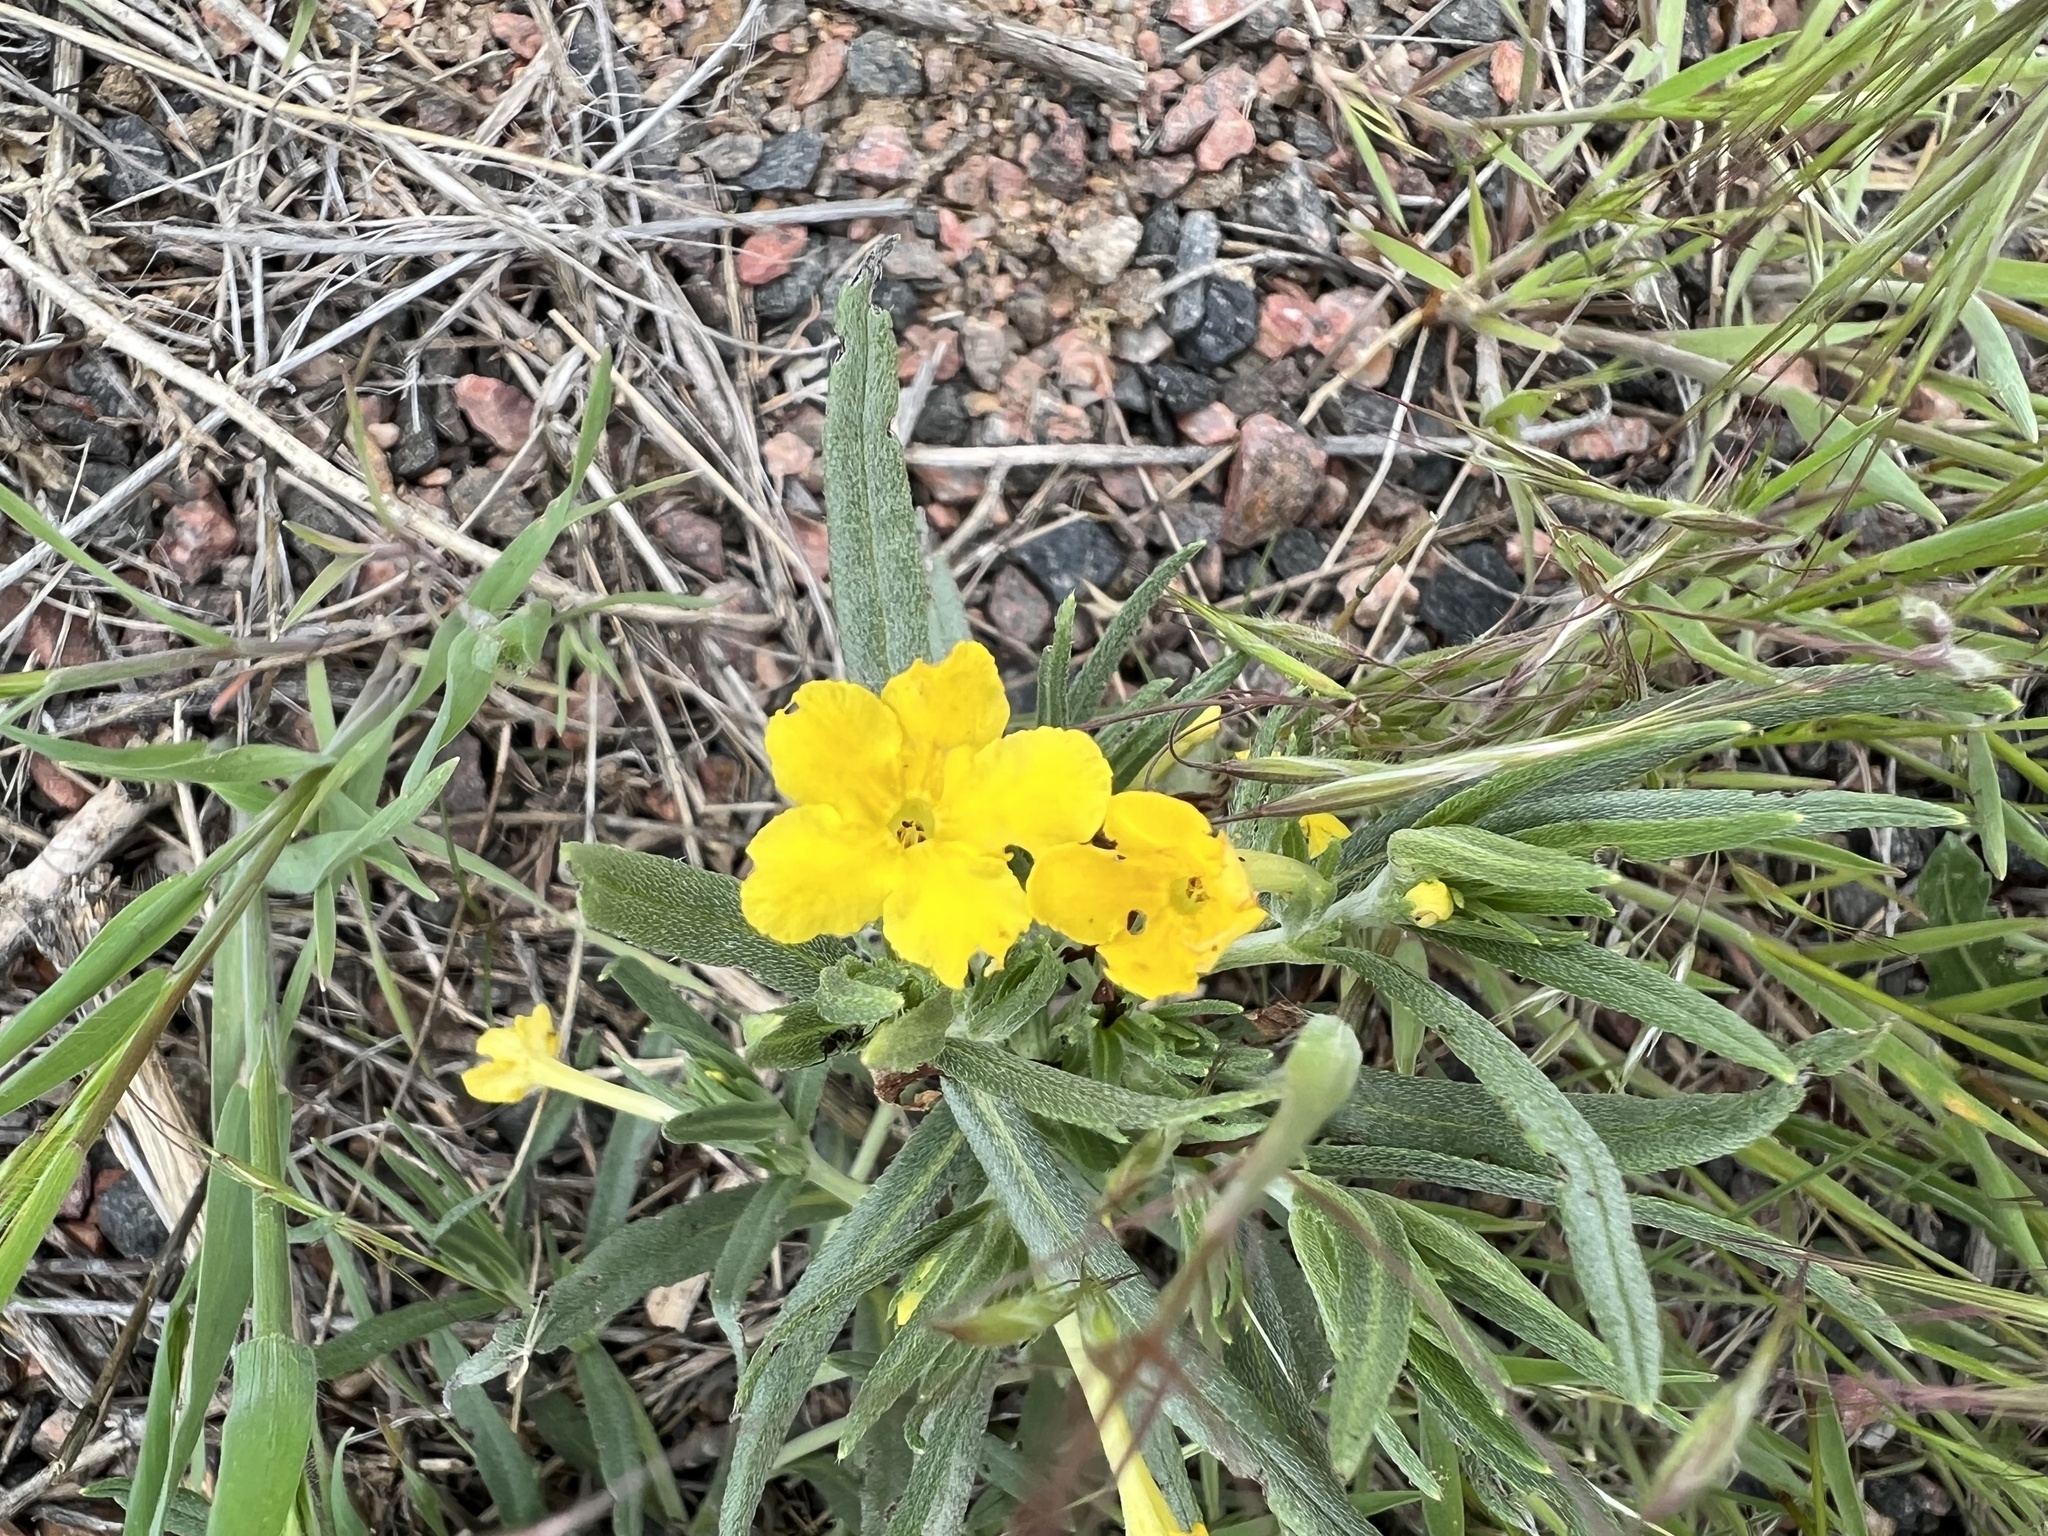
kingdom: Plantae
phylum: Tracheophyta
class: Magnoliopsida
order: Boraginales
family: Boraginaceae
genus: Lithospermum
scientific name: Lithospermum incisum
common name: Fringed gromwell
